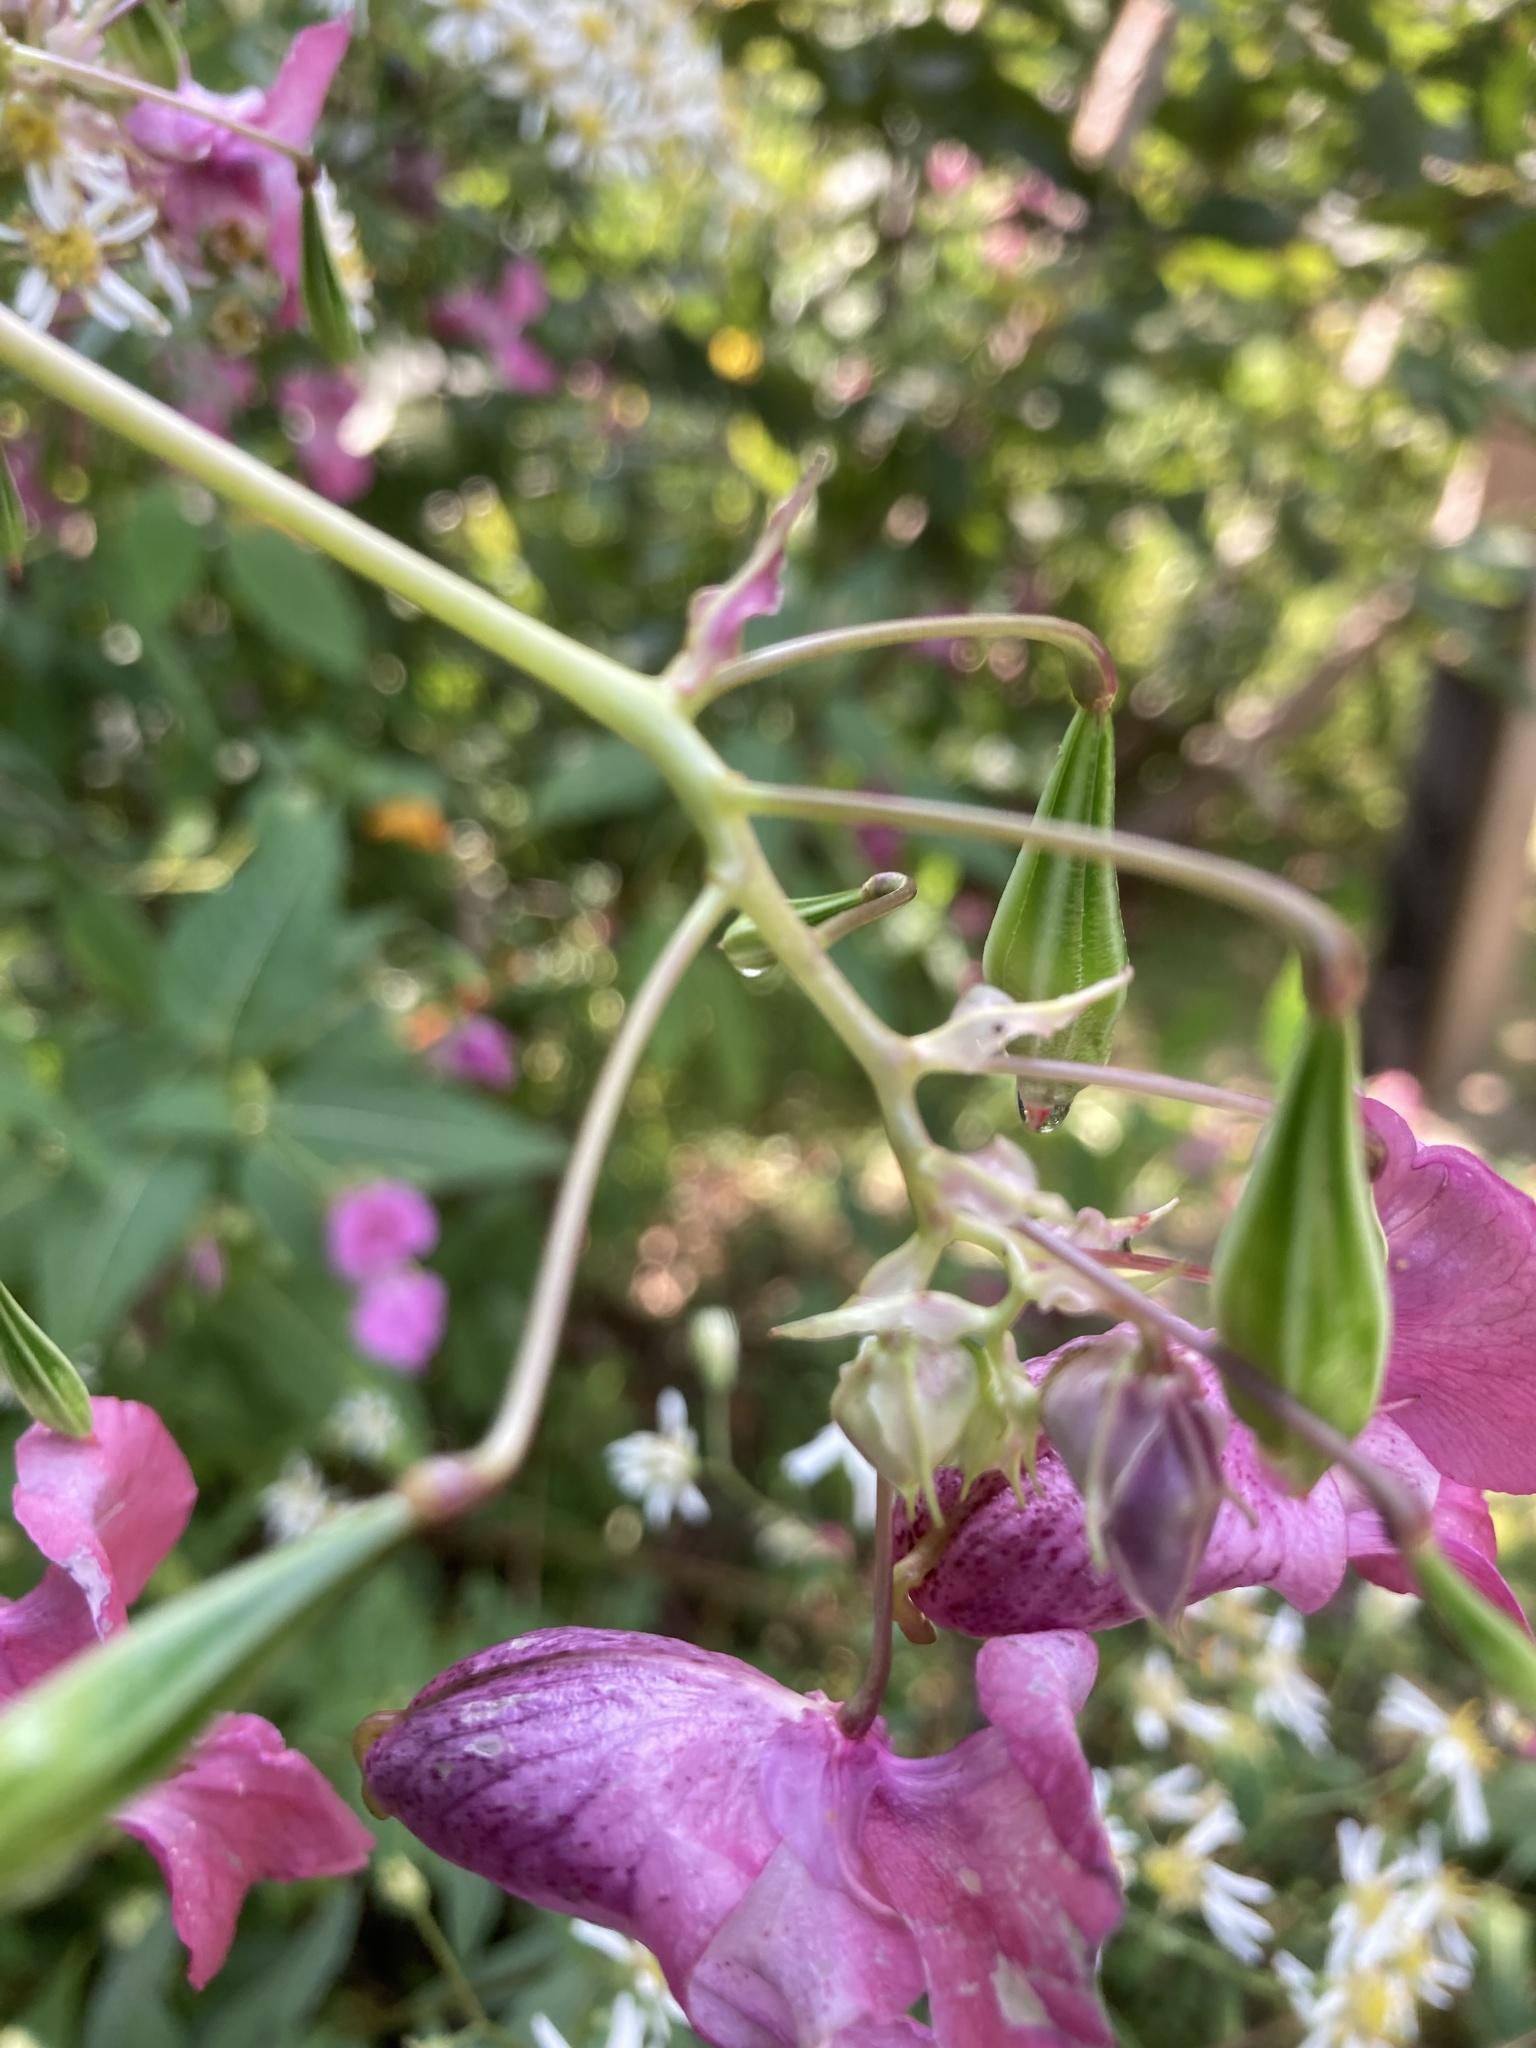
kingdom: Plantae
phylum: Tracheophyta
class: Magnoliopsida
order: Ericales
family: Balsaminaceae
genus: Impatiens
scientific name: Impatiens glandulifera
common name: Himalayan balsam
